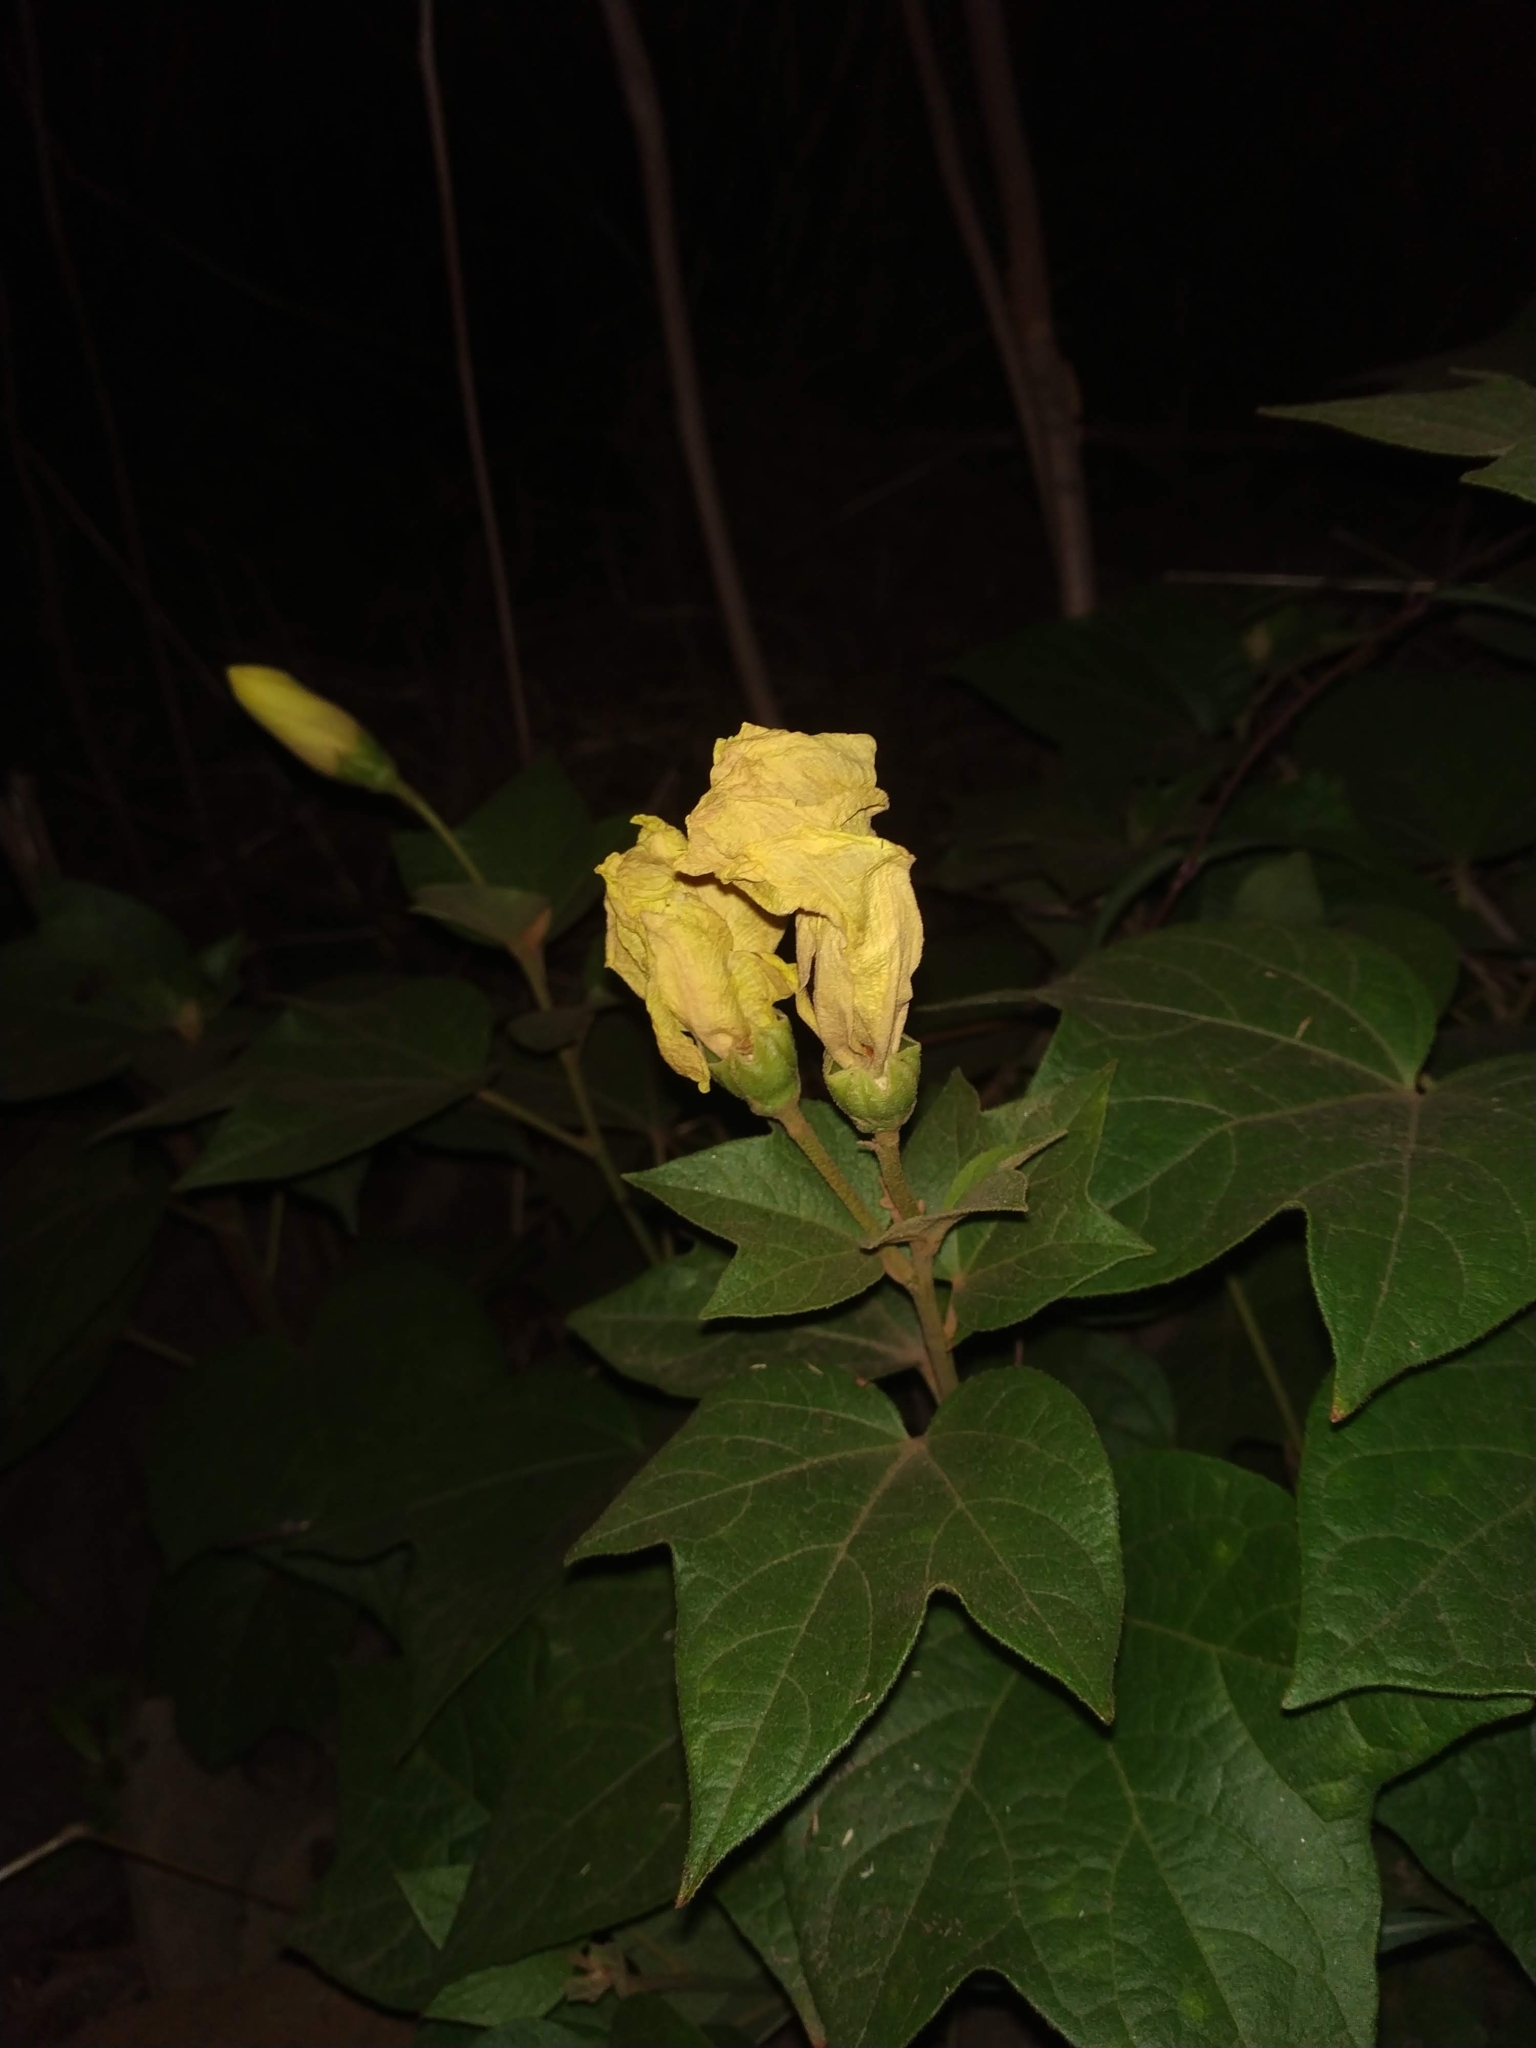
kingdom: Plantae
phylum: Tracheophyta
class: Magnoliopsida
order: Malvales
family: Malvaceae
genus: Thespesia
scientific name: Thespesia lampas
